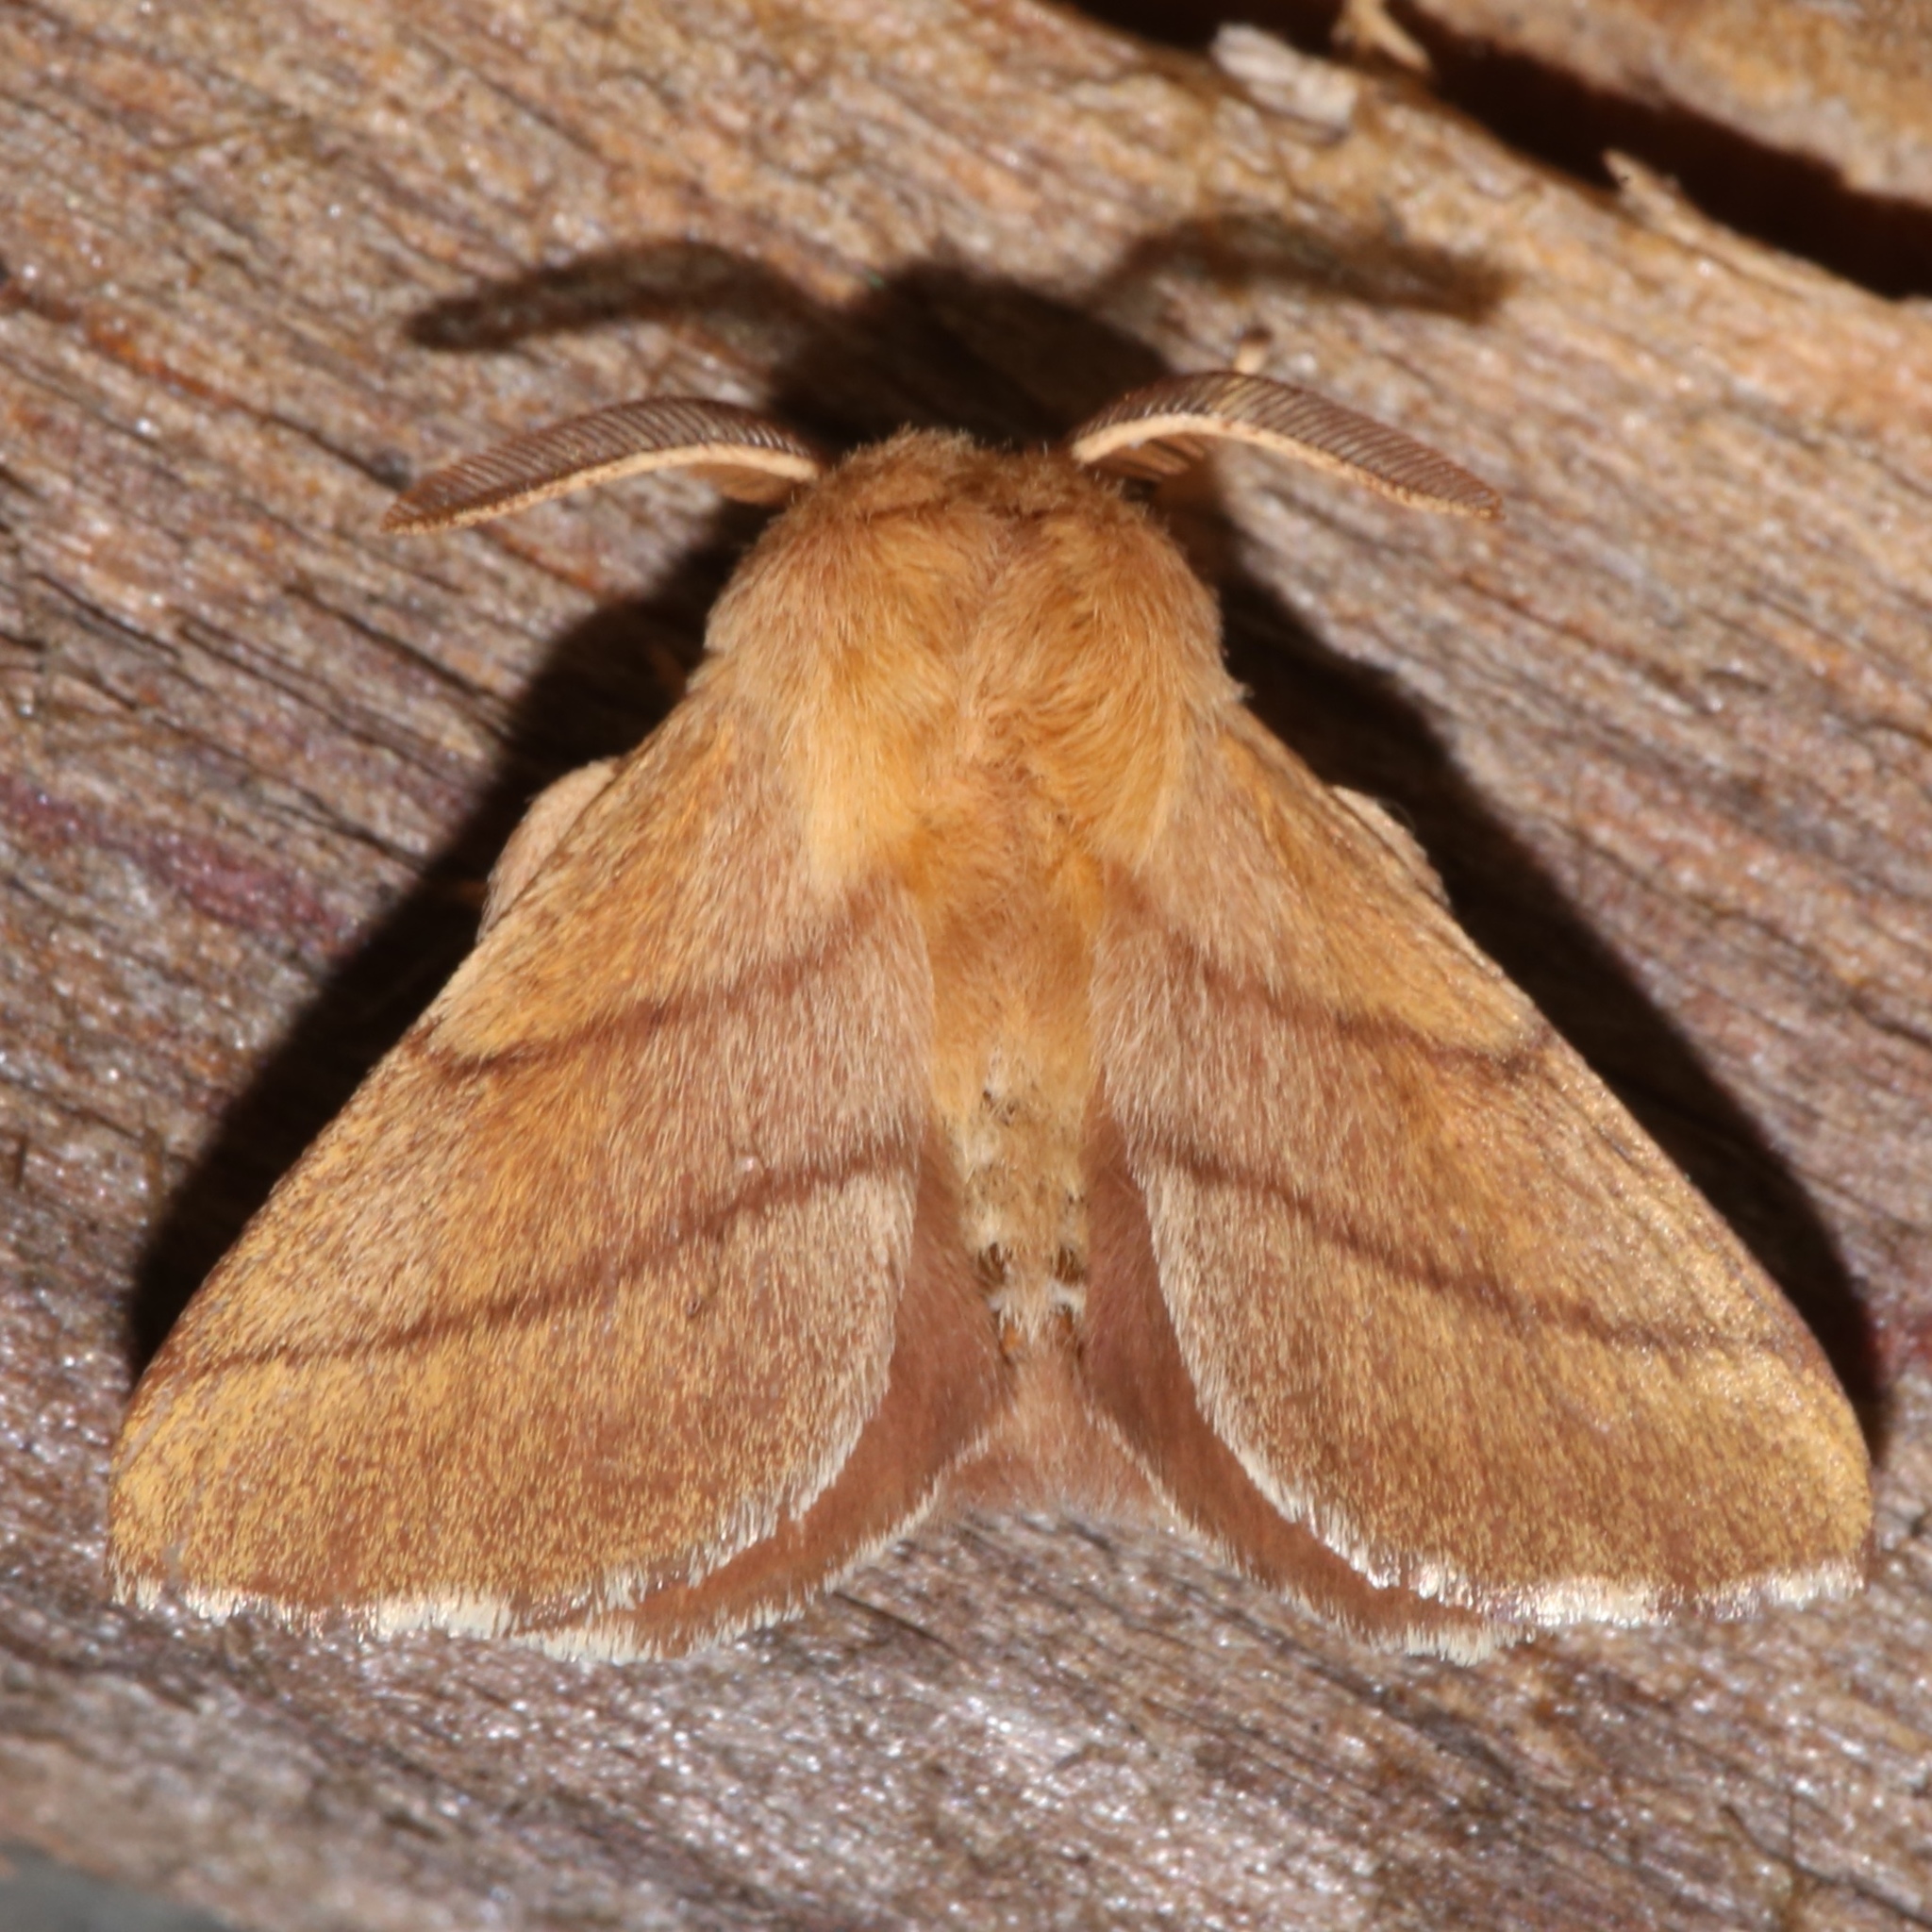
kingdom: Animalia
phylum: Arthropoda
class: Insecta
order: Lepidoptera
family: Lasiocampidae
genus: Malacosoma
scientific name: Malacosoma disstria
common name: Forest tent caterpillar
